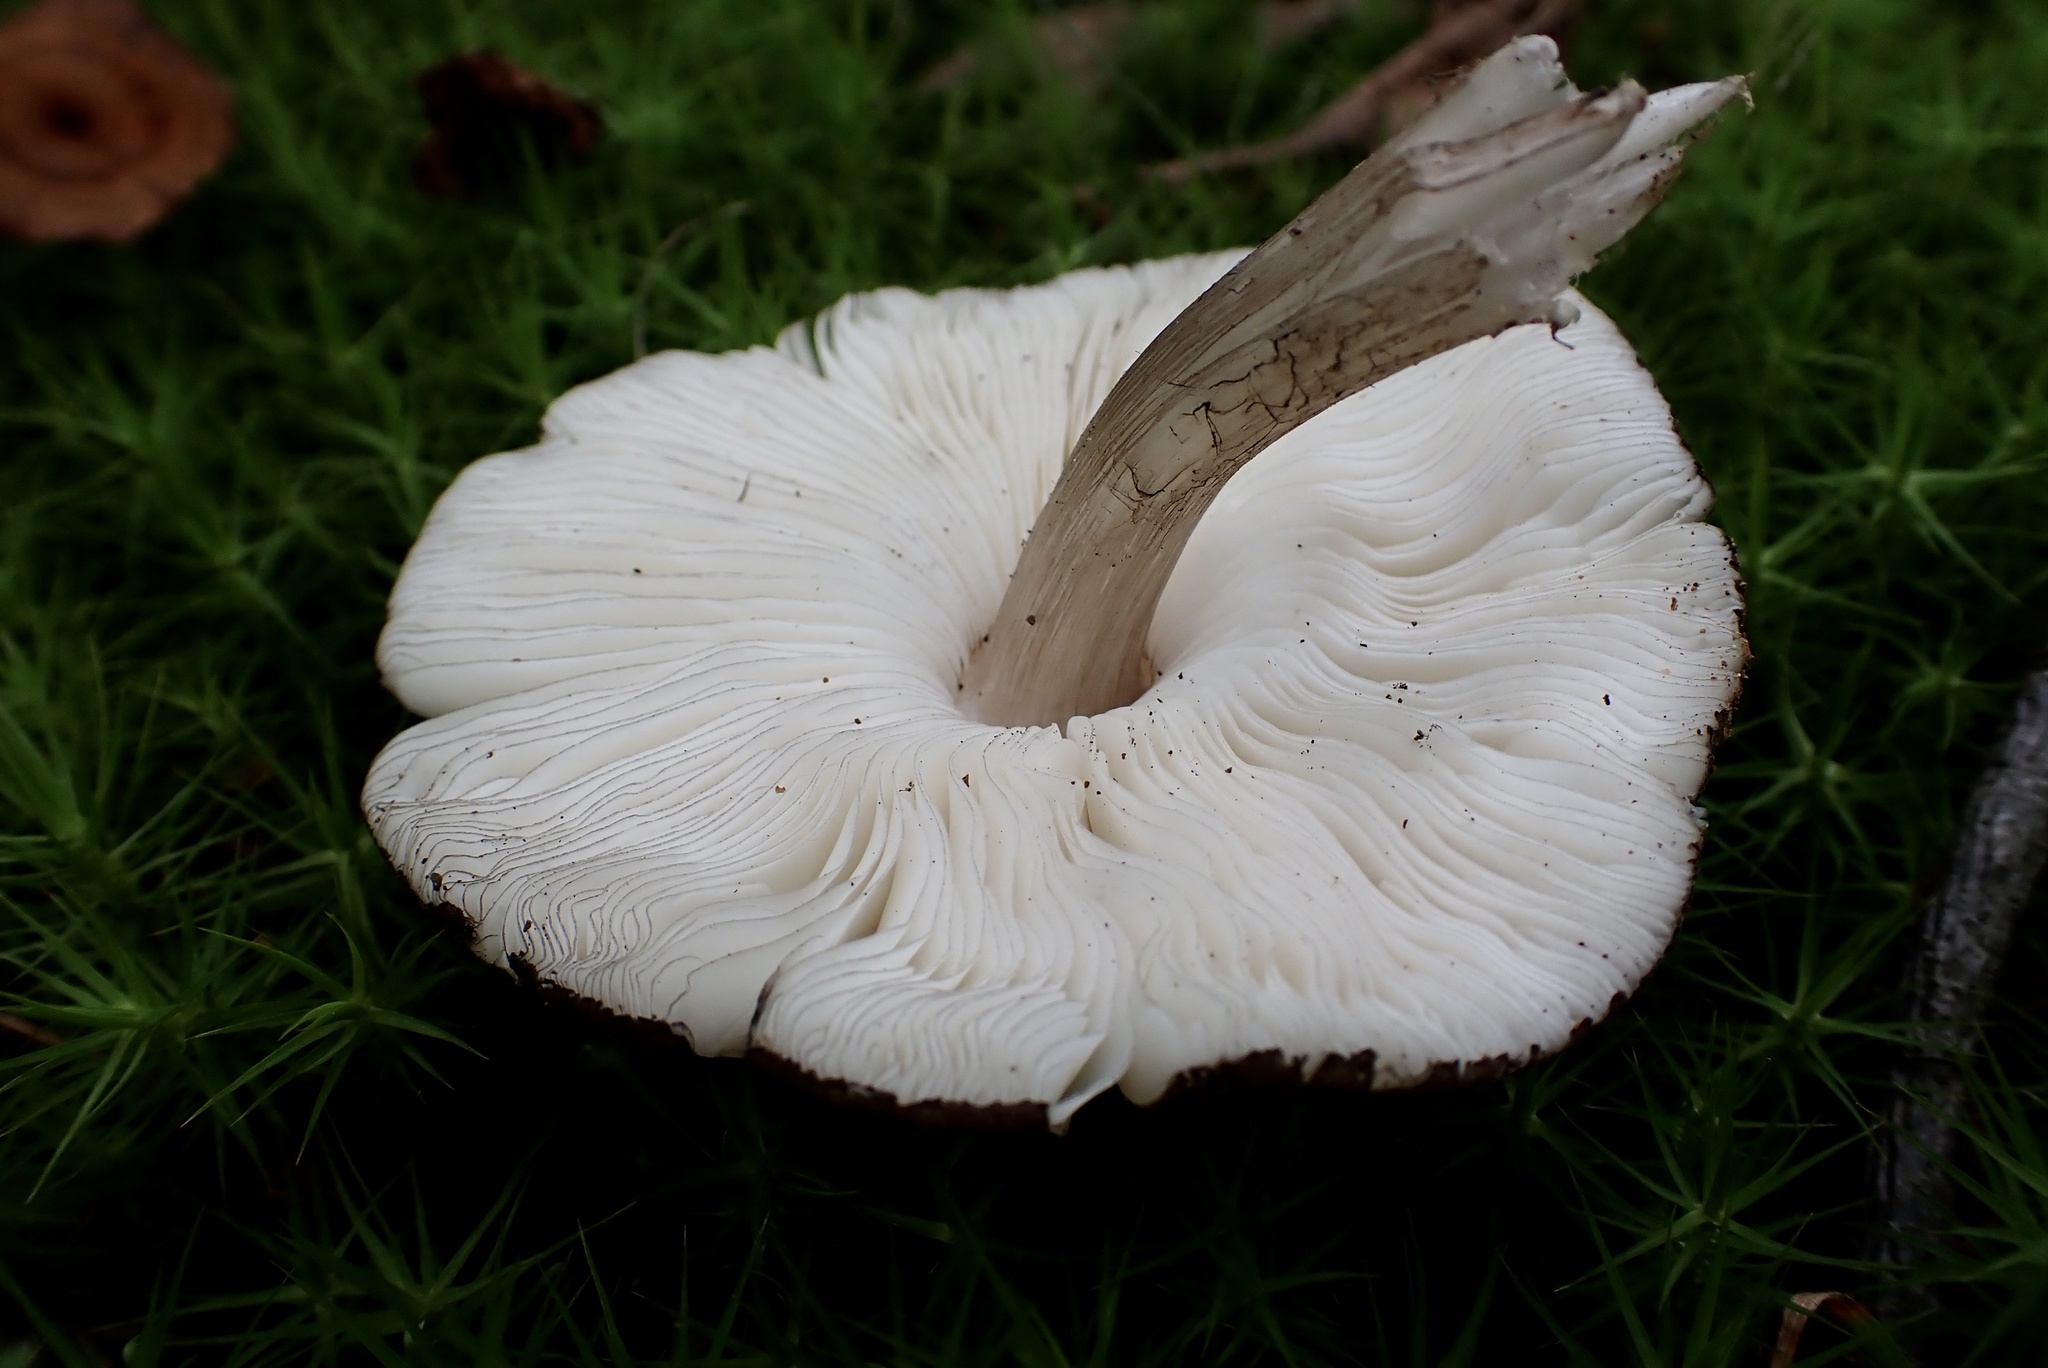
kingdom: Fungi
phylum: Basidiomycota
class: Agaricomycetes
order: Agaricales
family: Pluteaceae
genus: Pluteus
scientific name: Pluteus atromarginatus
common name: Blackedged shield
